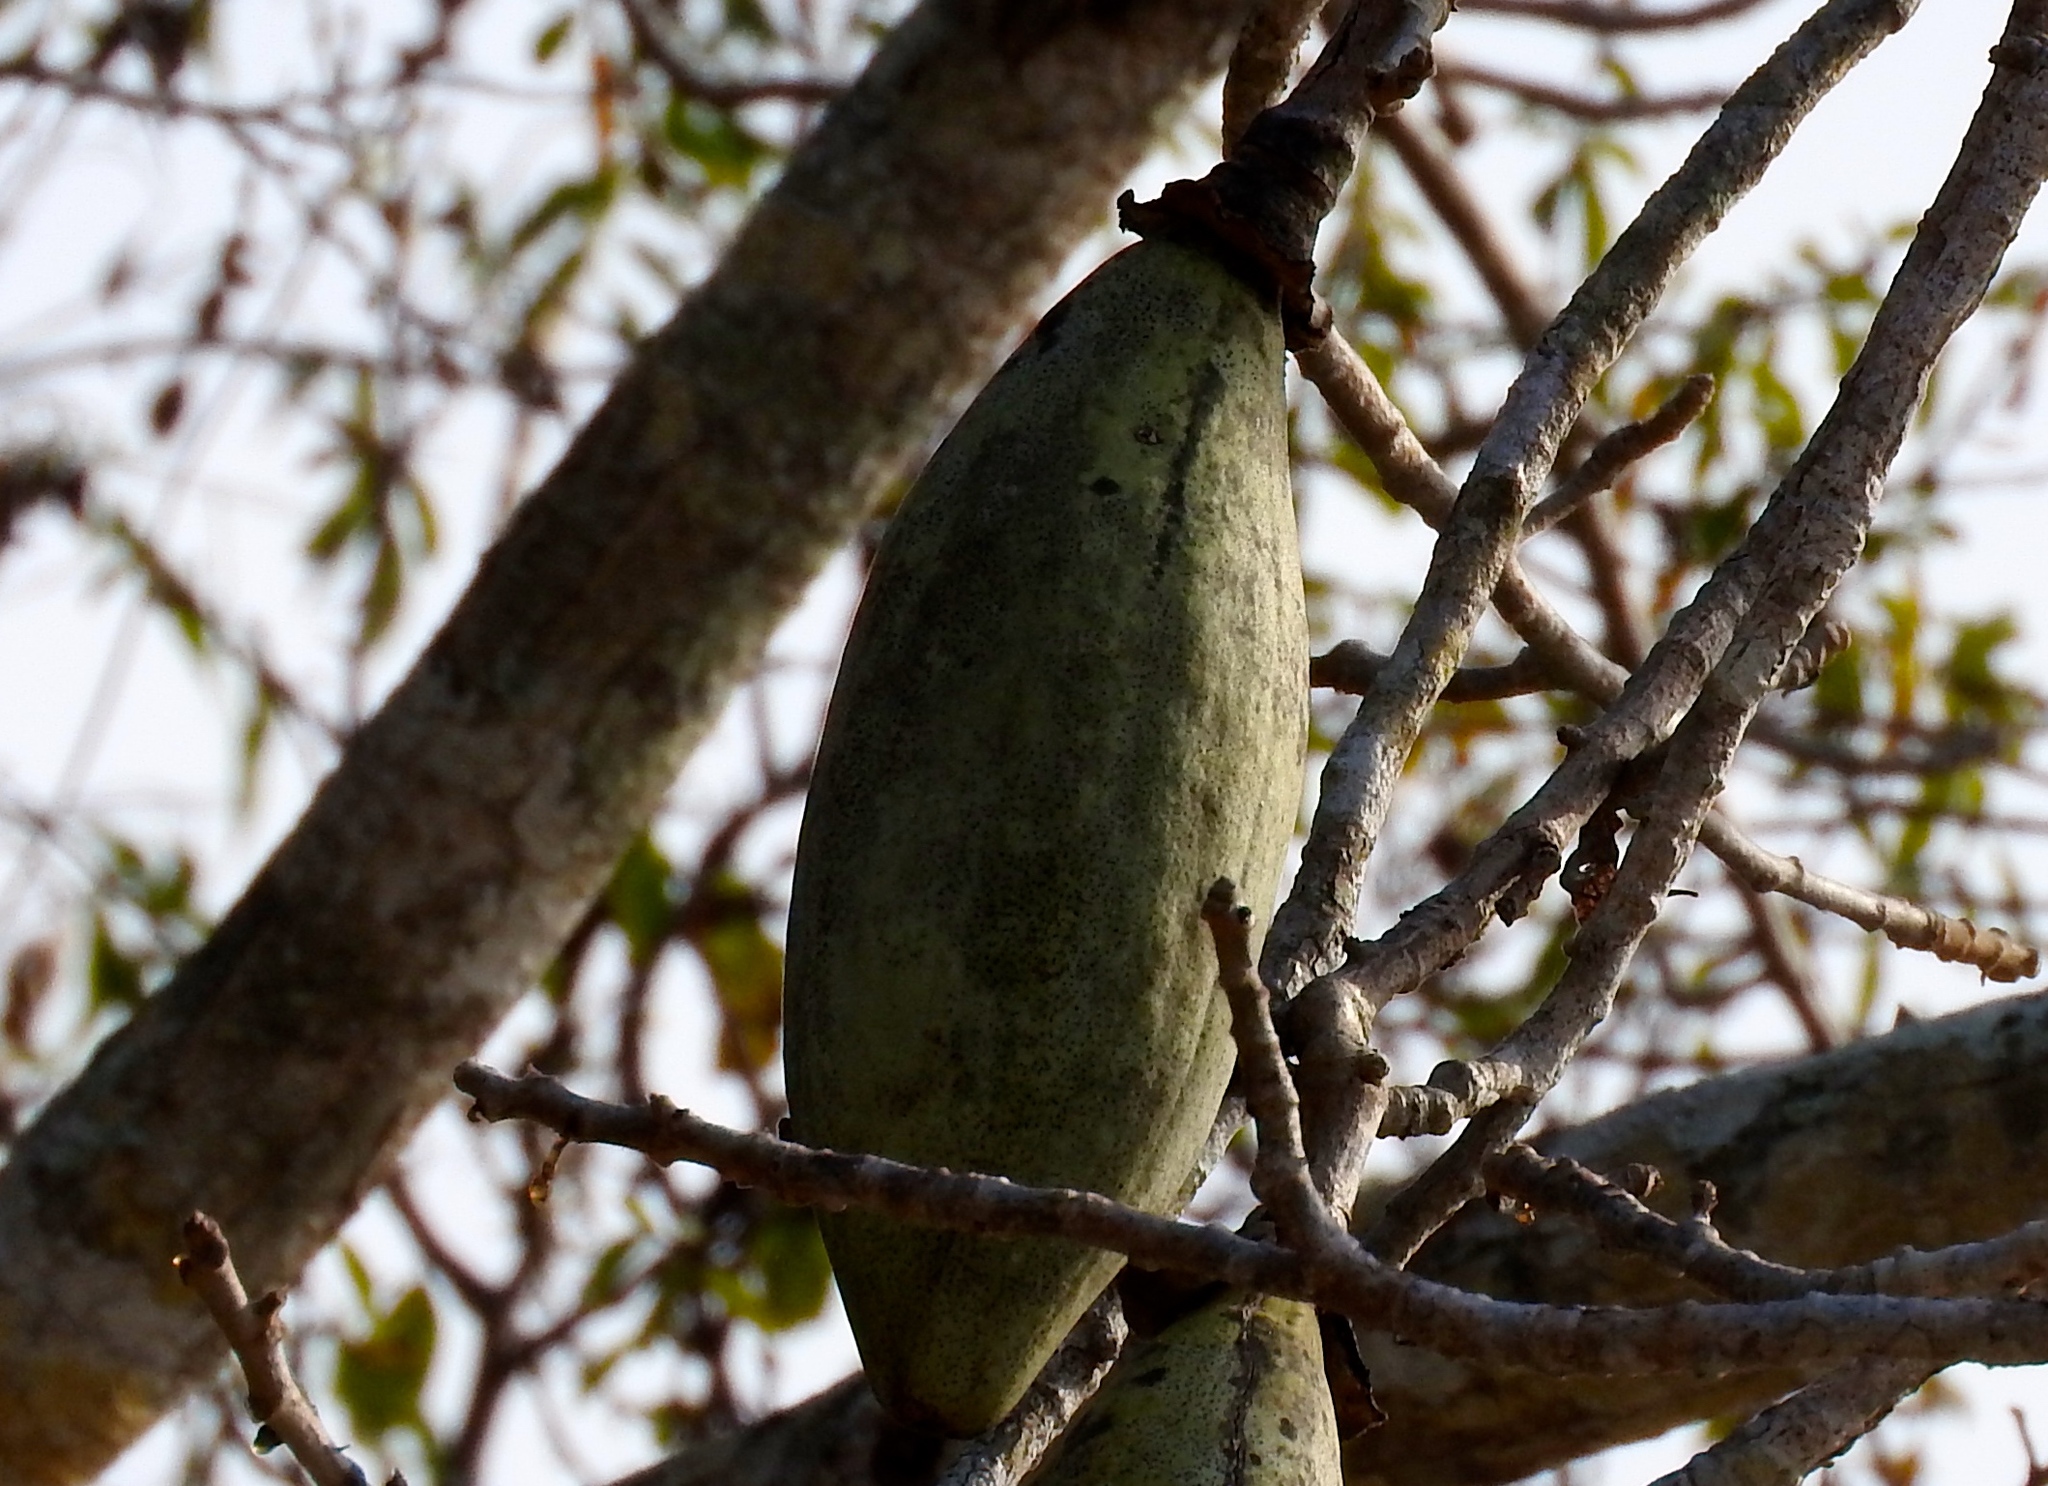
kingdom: Plantae
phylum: Tracheophyta
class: Magnoliopsida
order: Malvales
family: Malvaceae
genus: Ceiba
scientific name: Ceiba aesculifolia
